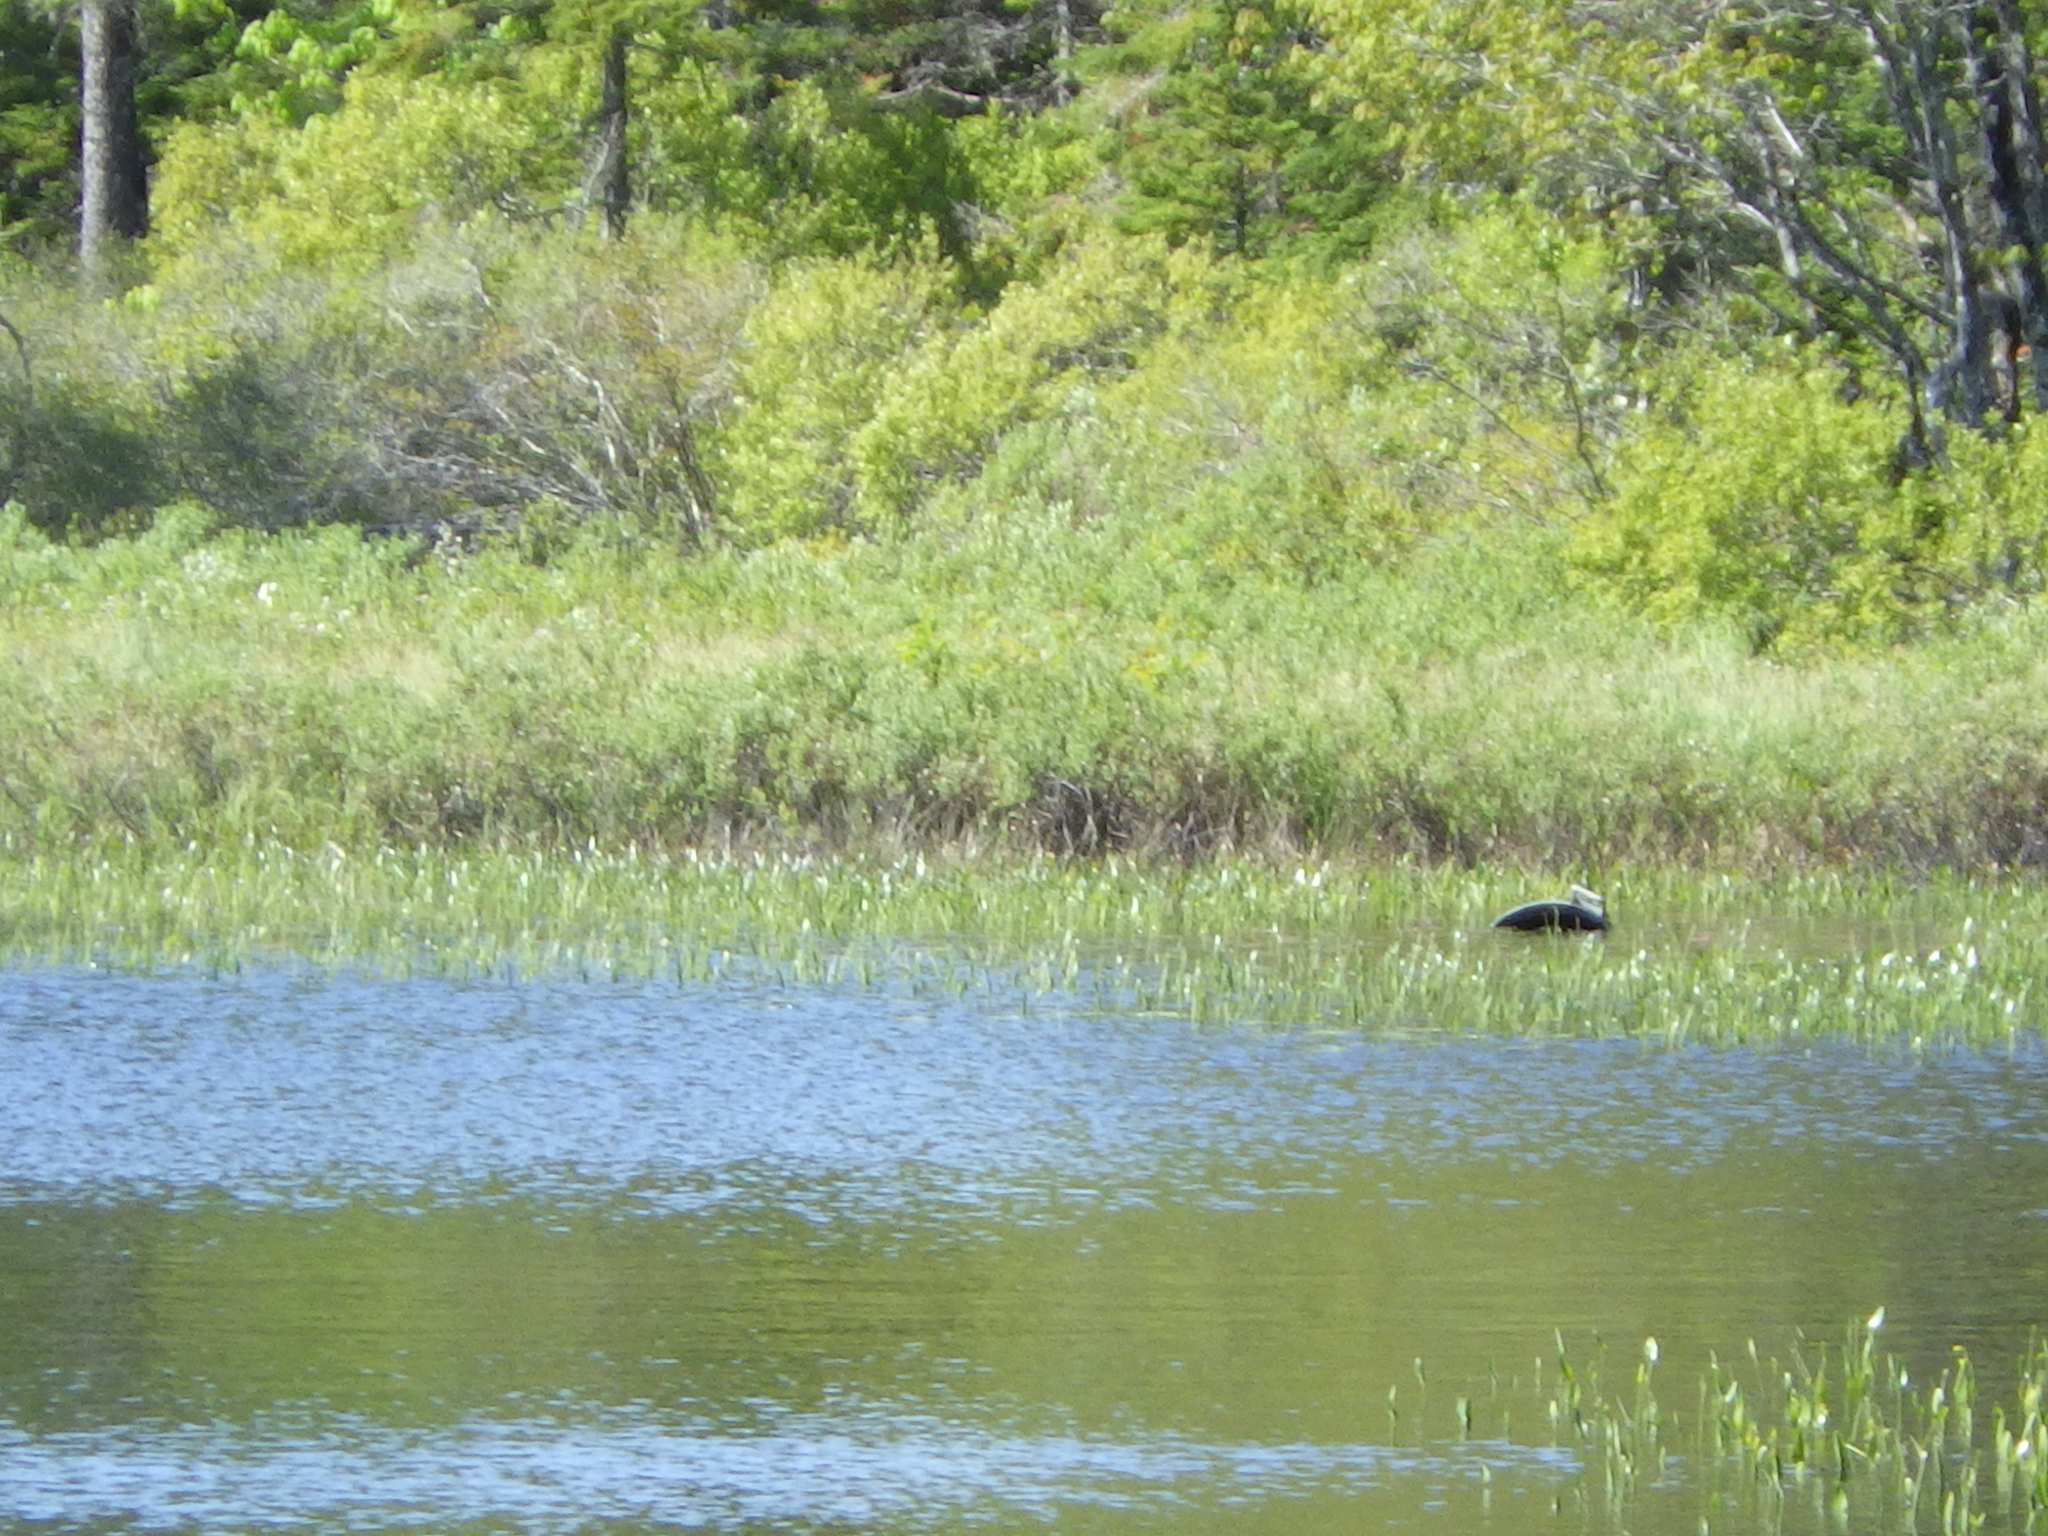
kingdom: Plantae
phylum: Tracheophyta
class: Liliopsida
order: Commelinales
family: Pontederiaceae
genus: Pontederia
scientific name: Pontederia cordata
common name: Pickerelweed
